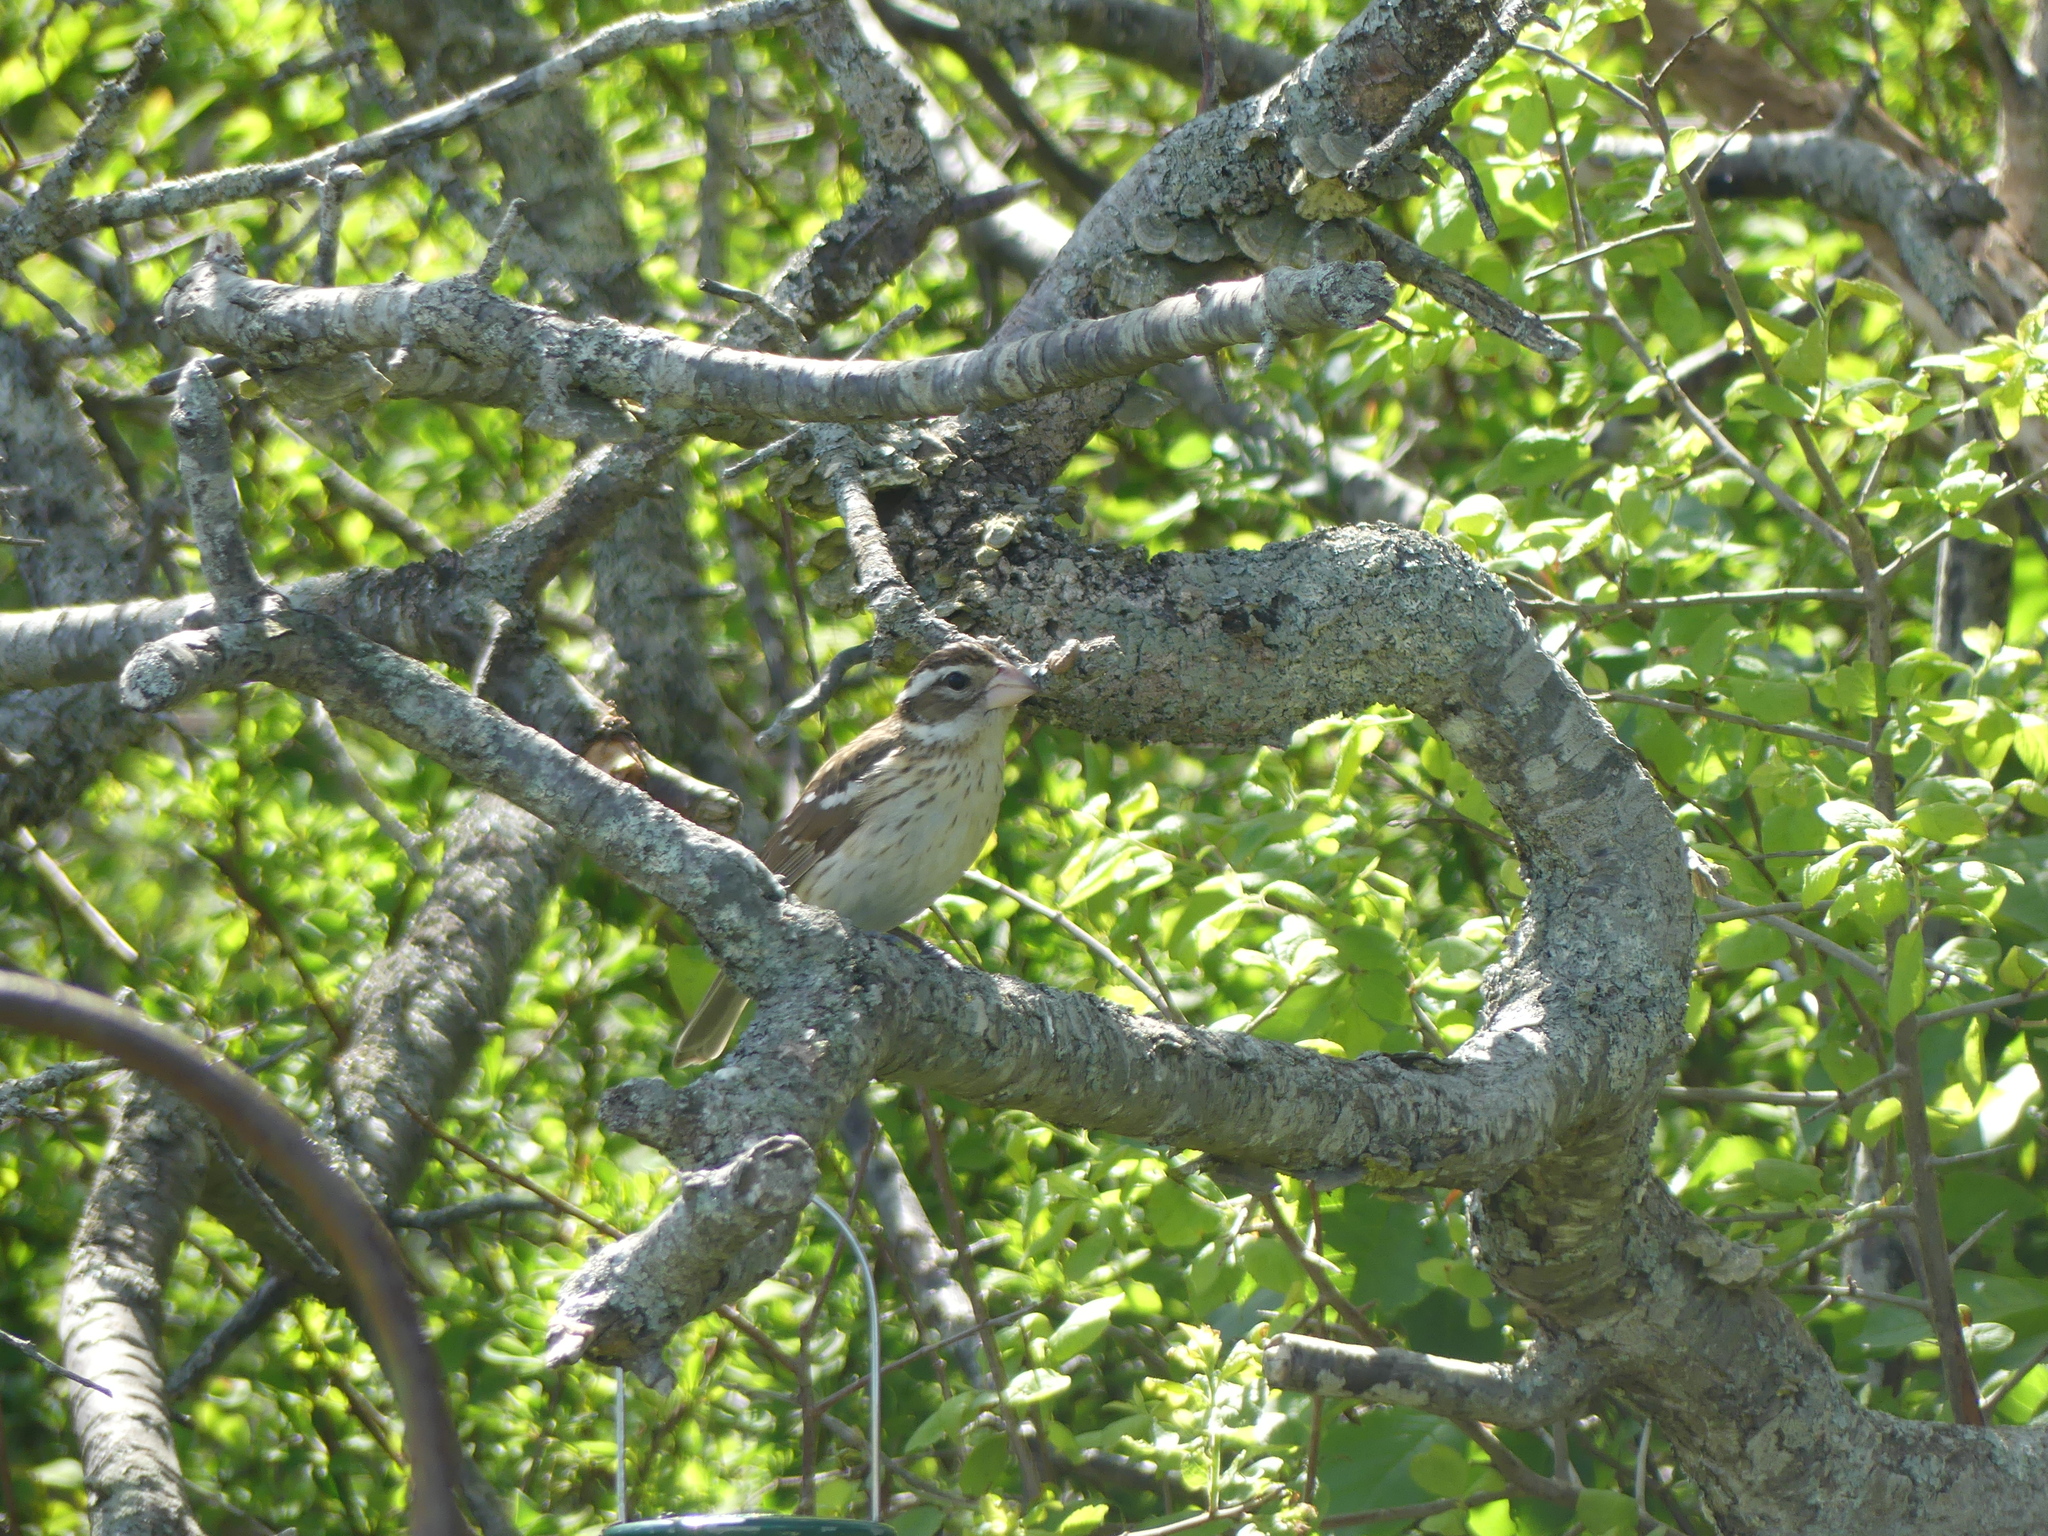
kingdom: Animalia
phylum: Chordata
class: Aves
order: Passeriformes
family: Cardinalidae
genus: Pheucticus
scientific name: Pheucticus ludovicianus
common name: Rose-breasted grosbeak
